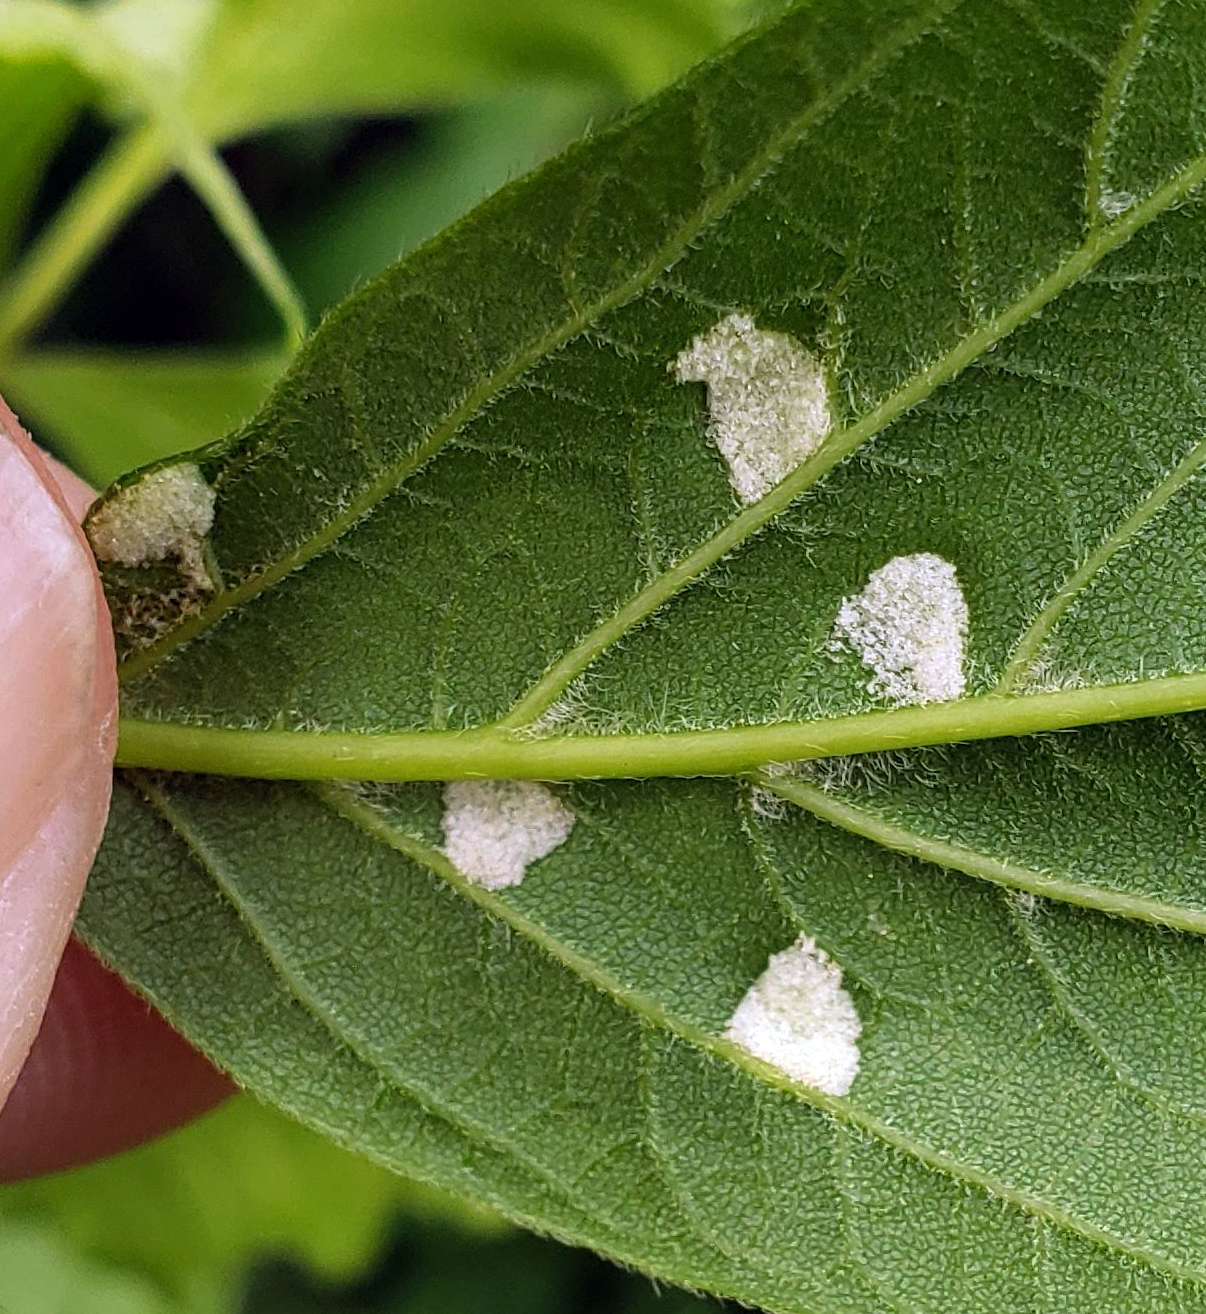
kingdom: Animalia
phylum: Arthropoda
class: Arachnida
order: Trombidiformes
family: Eriophyidae
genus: Aceria
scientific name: Aceria
